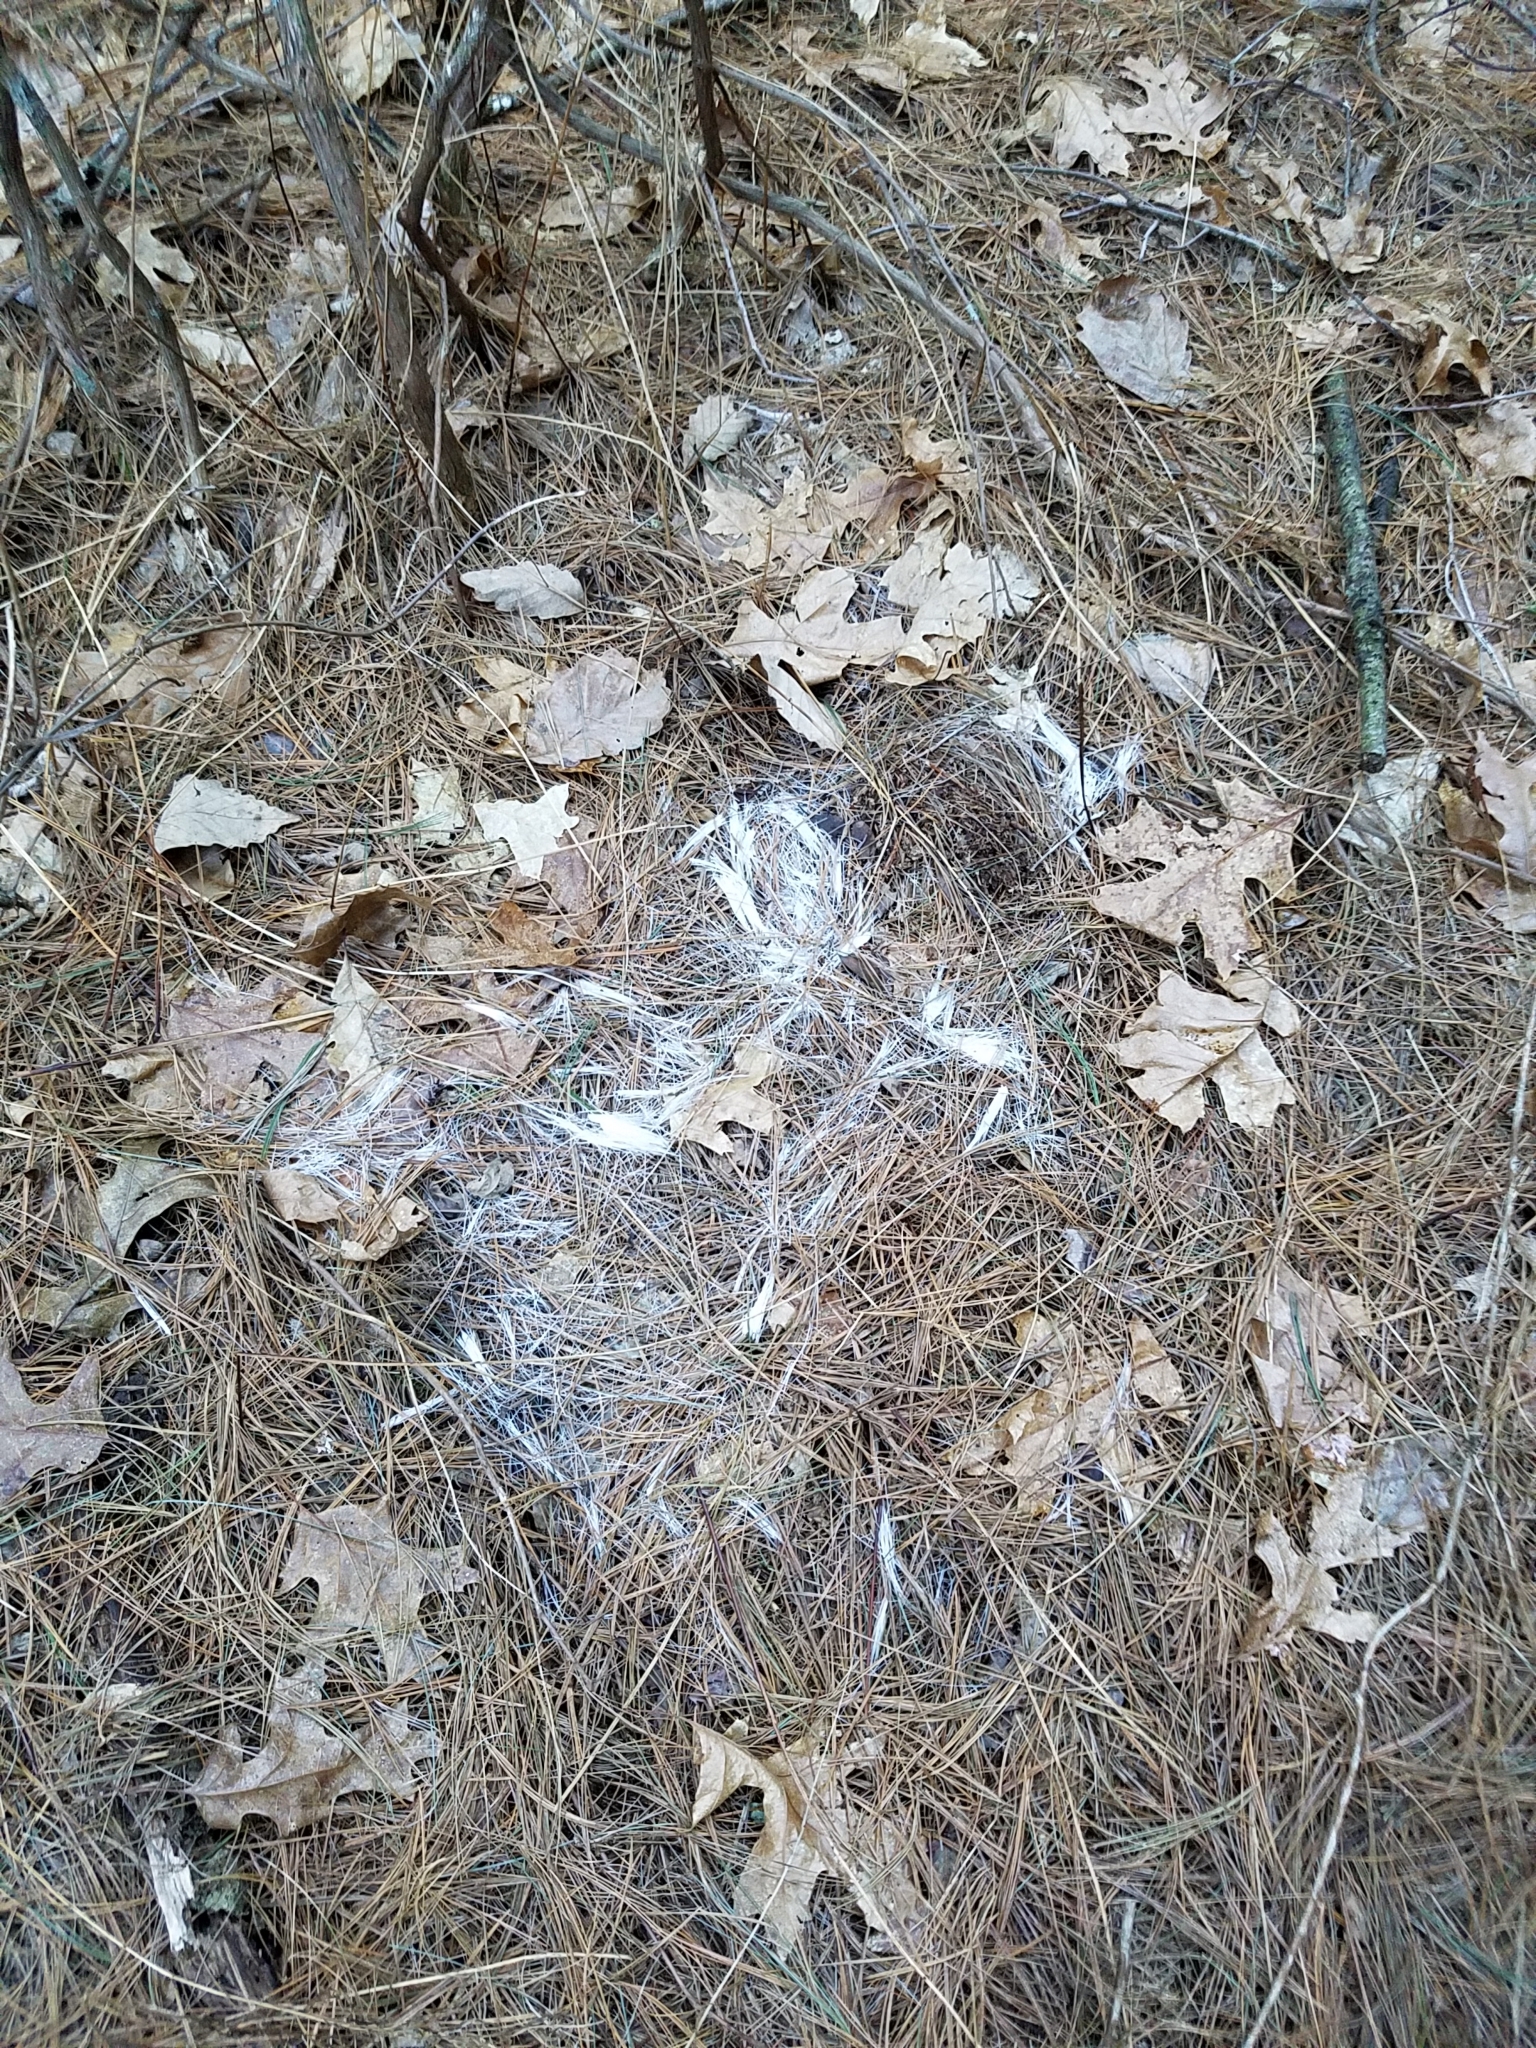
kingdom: Animalia
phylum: Chordata
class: Mammalia
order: Artiodactyla
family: Cervidae
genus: Odocoileus
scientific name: Odocoileus virginianus
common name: White-tailed deer
